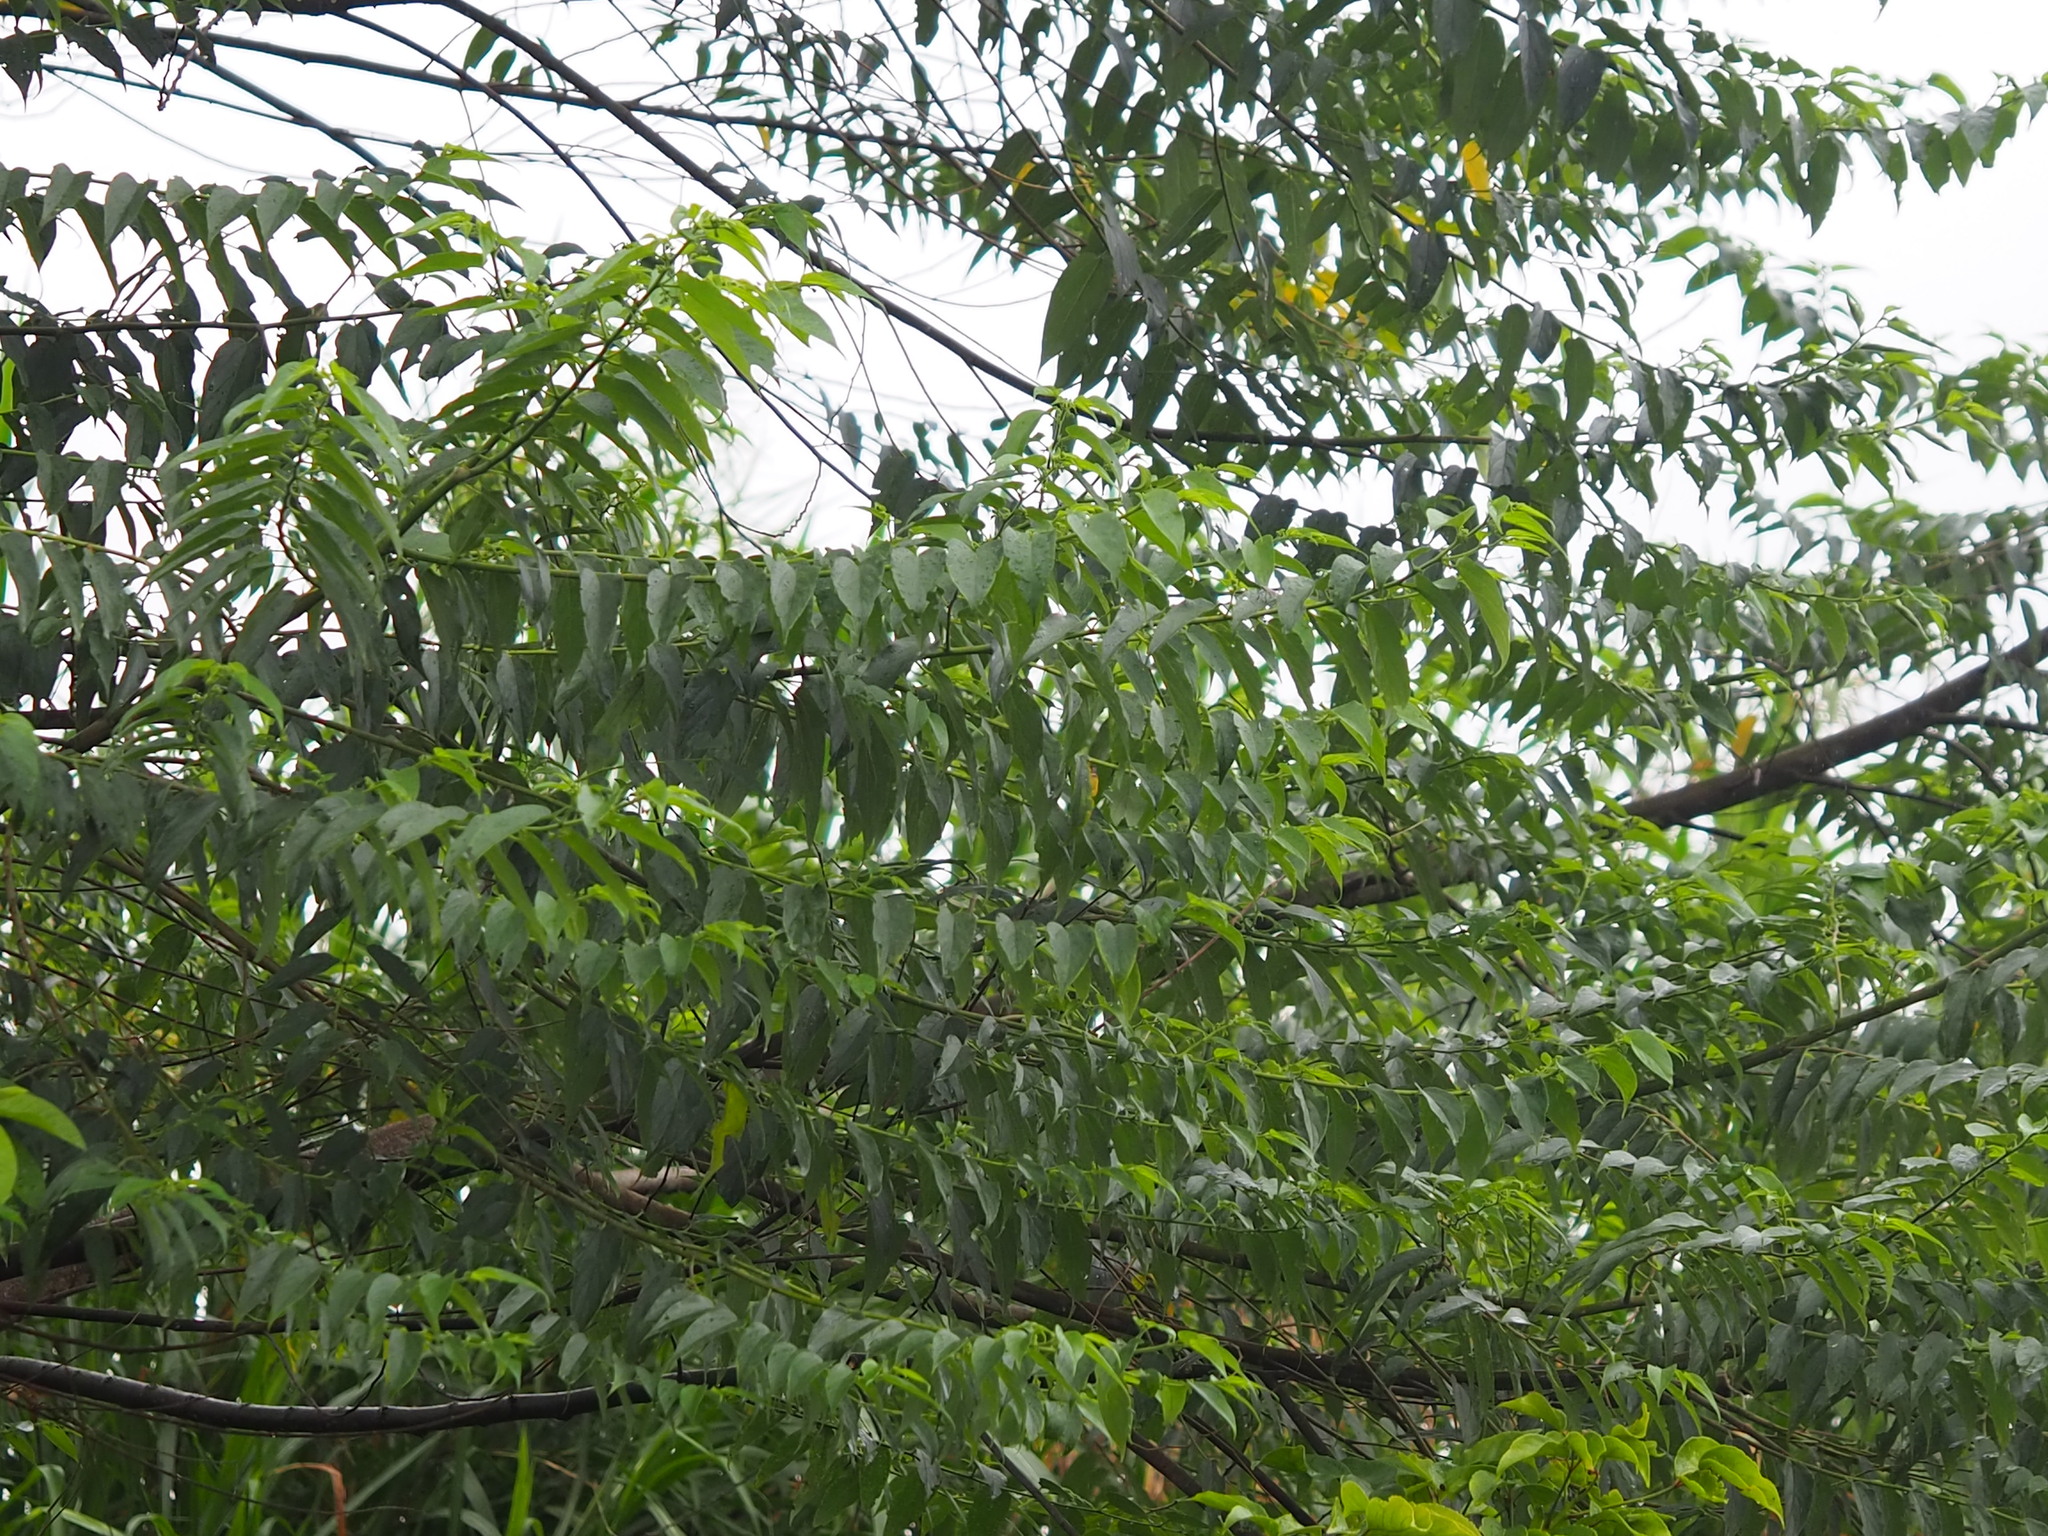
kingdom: Plantae
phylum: Tracheophyta
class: Magnoliopsida
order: Rosales
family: Cannabaceae
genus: Trema
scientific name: Trema orientale
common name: Indian charcoal tree
